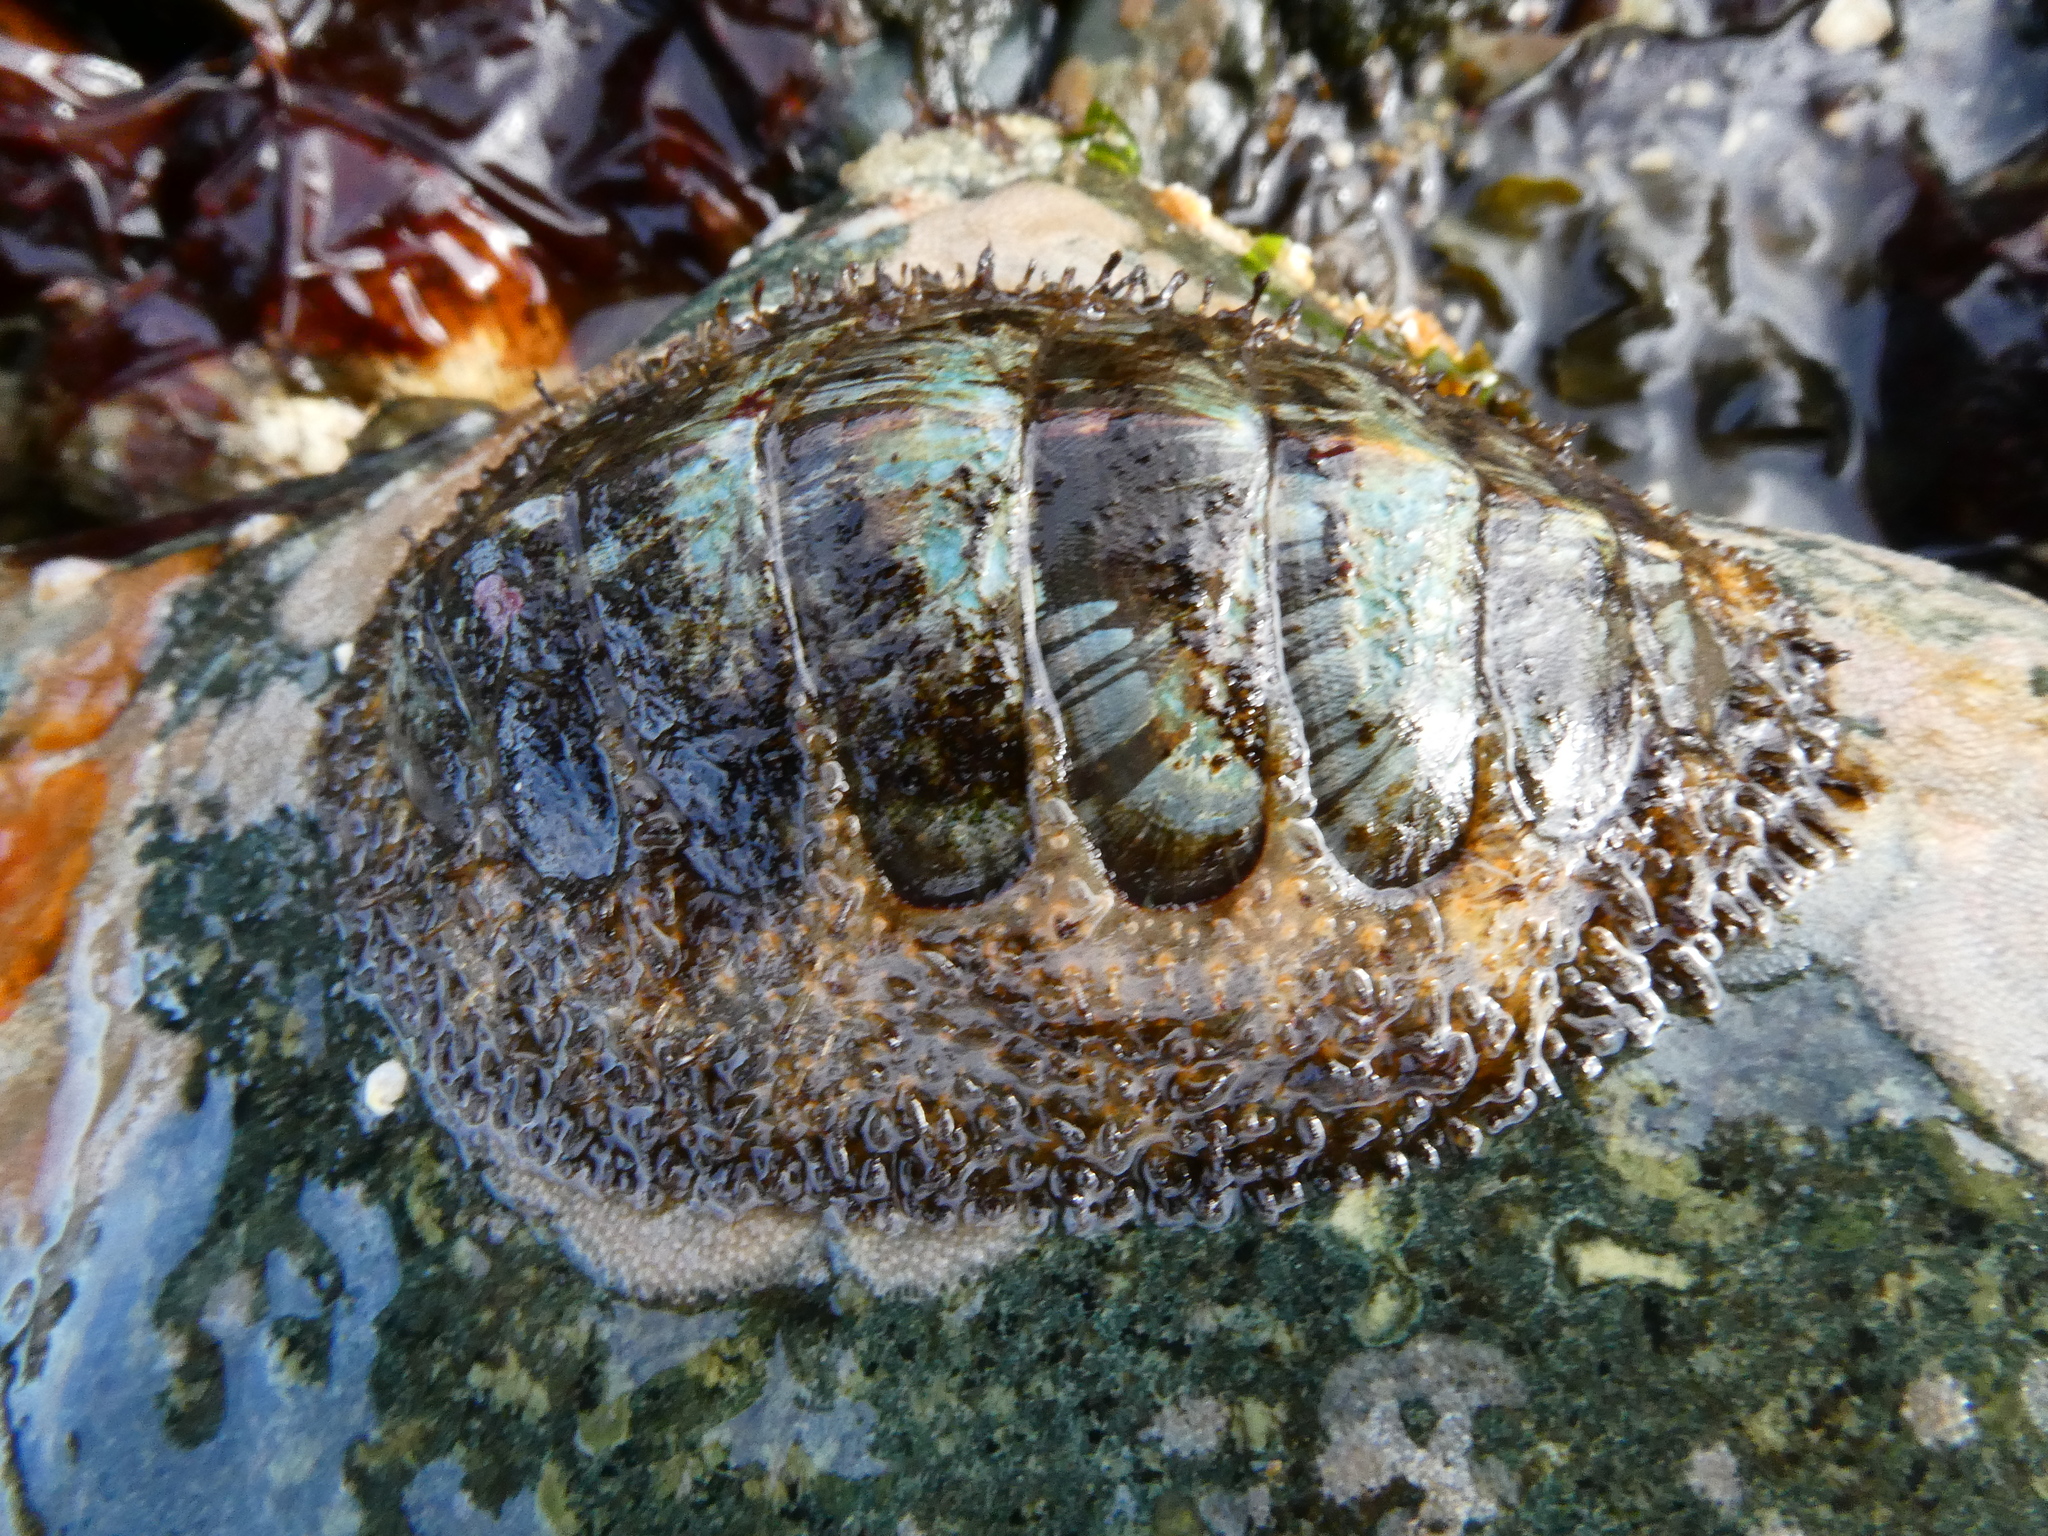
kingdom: Animalia
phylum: Mollusca
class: Polyplacophora
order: Chitonida
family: Mopaliidae
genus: Mopalia
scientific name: Mopalia lignosa
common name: Woody chiton
